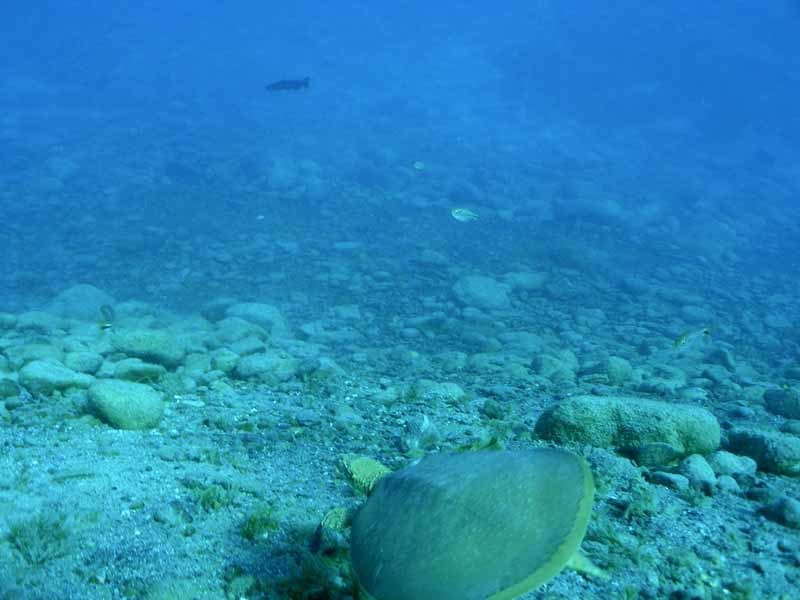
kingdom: Animalia
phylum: Chordata
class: Testudines
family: Trionychidae
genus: Apalone
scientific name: Apalone spinifera
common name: Spiny softshell turtle
